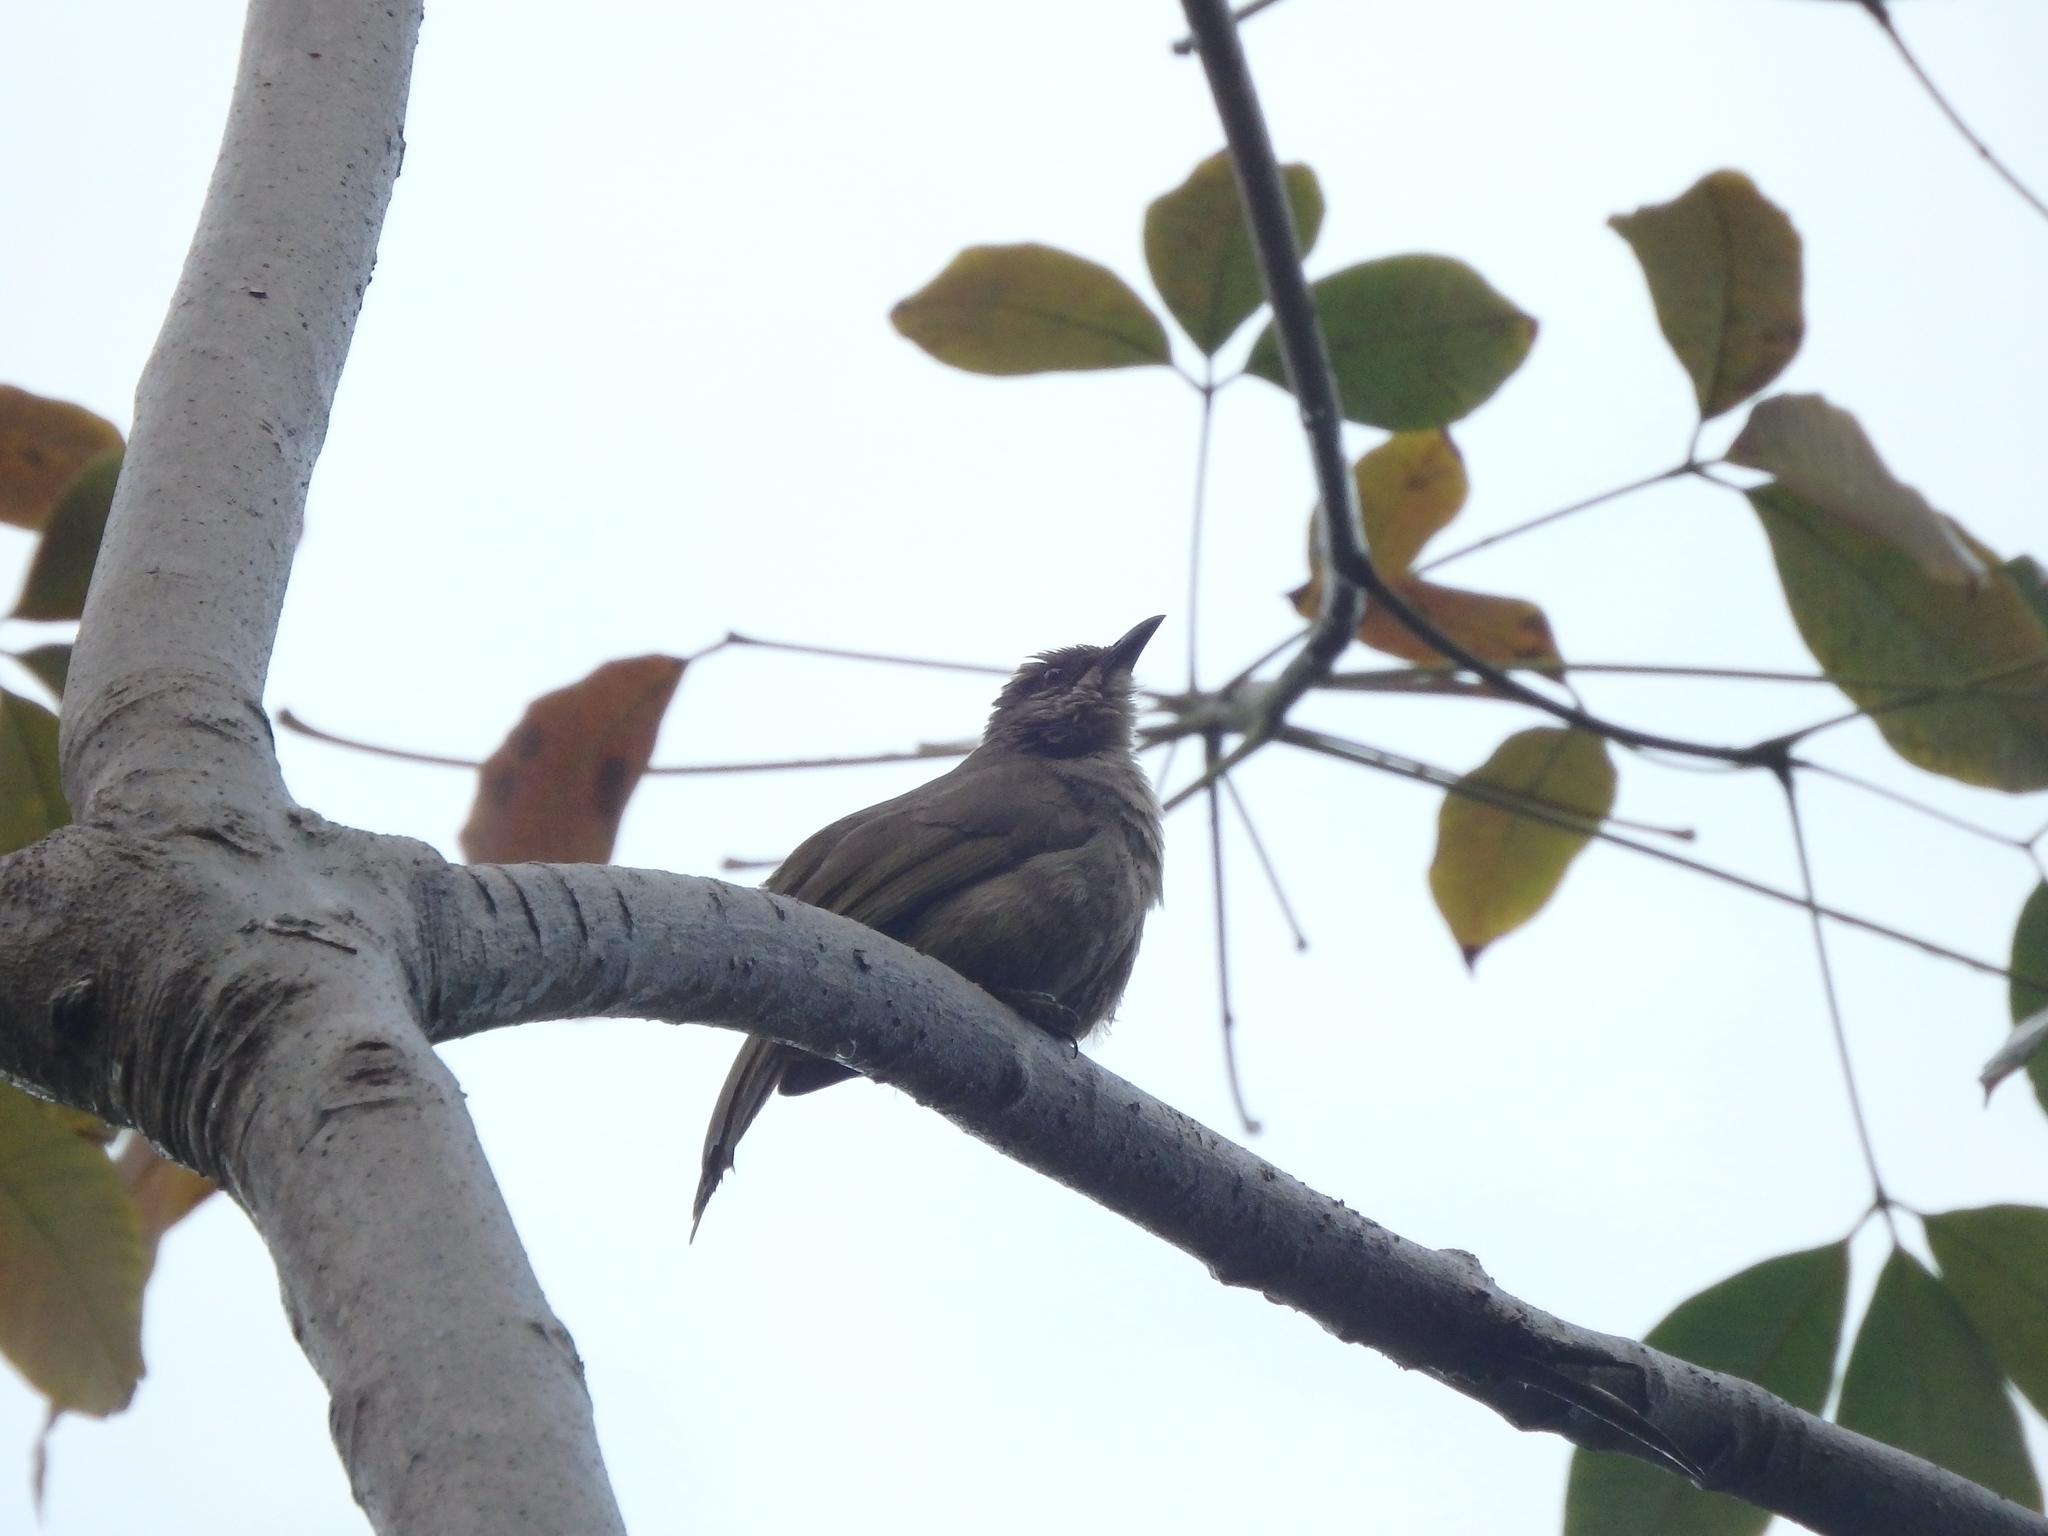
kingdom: Animalia
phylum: Chordata
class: Aves
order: Passeriformes
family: Pycnonotidae
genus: Pycnonotus
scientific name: Pycnonotus plumosus
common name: Olive-winged bulbul
